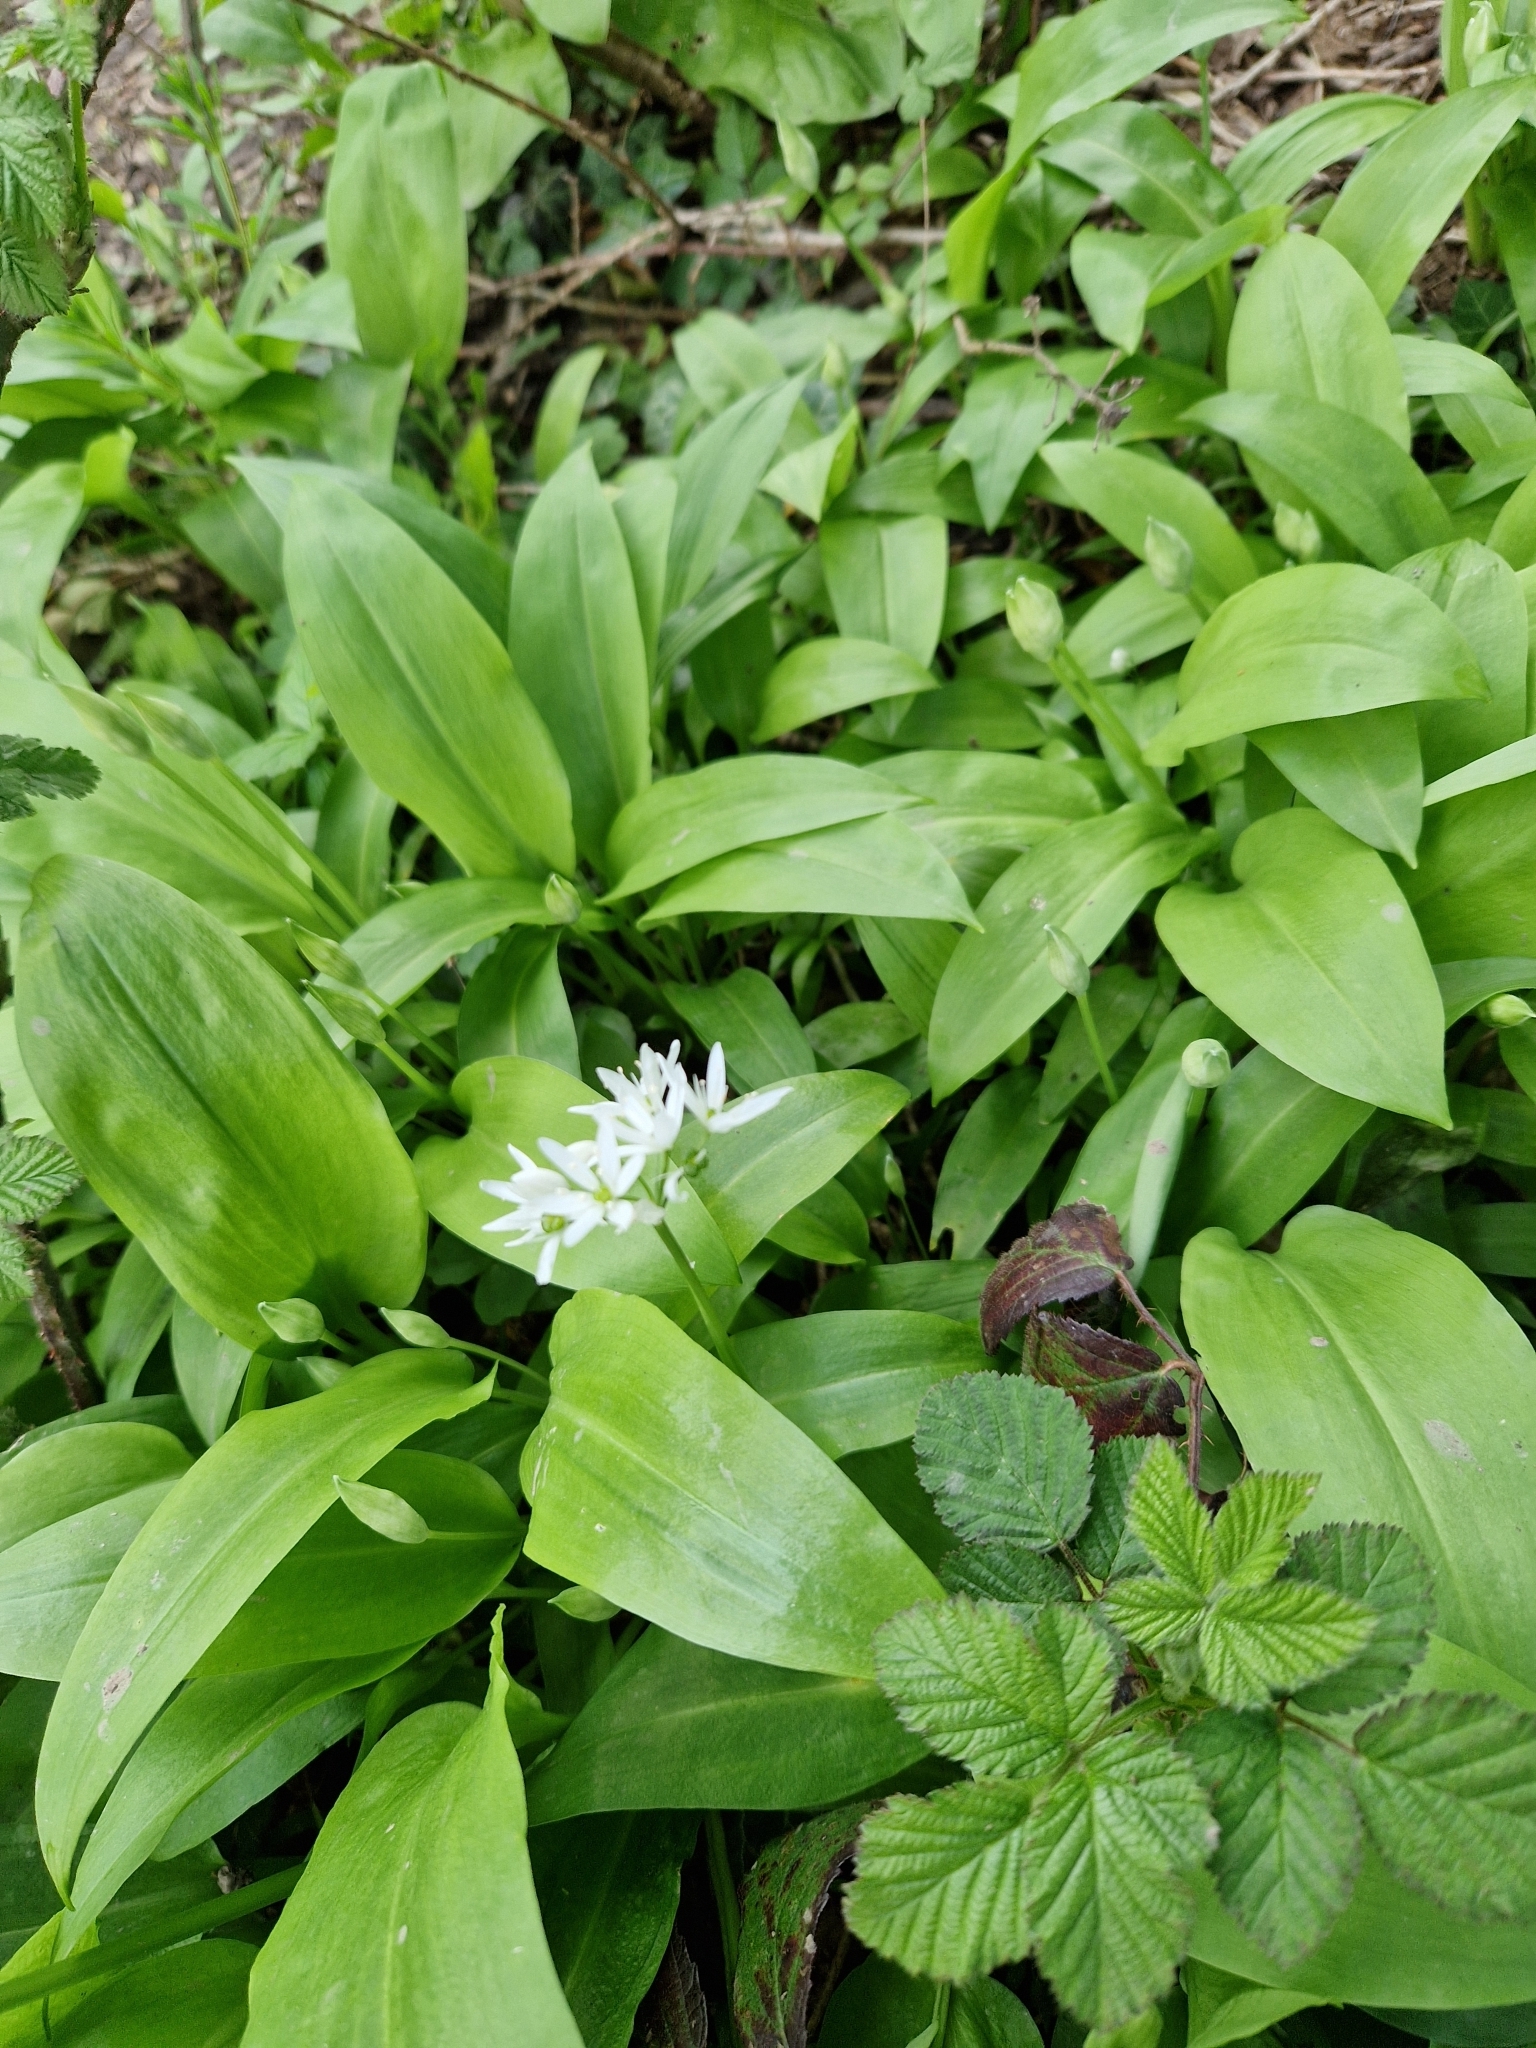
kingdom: Plantae
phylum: Tracheophyta
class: Liliopsida
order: Asparagales
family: Amaryllidaceae
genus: Allium
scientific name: Allium ursinum
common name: Ramsons
